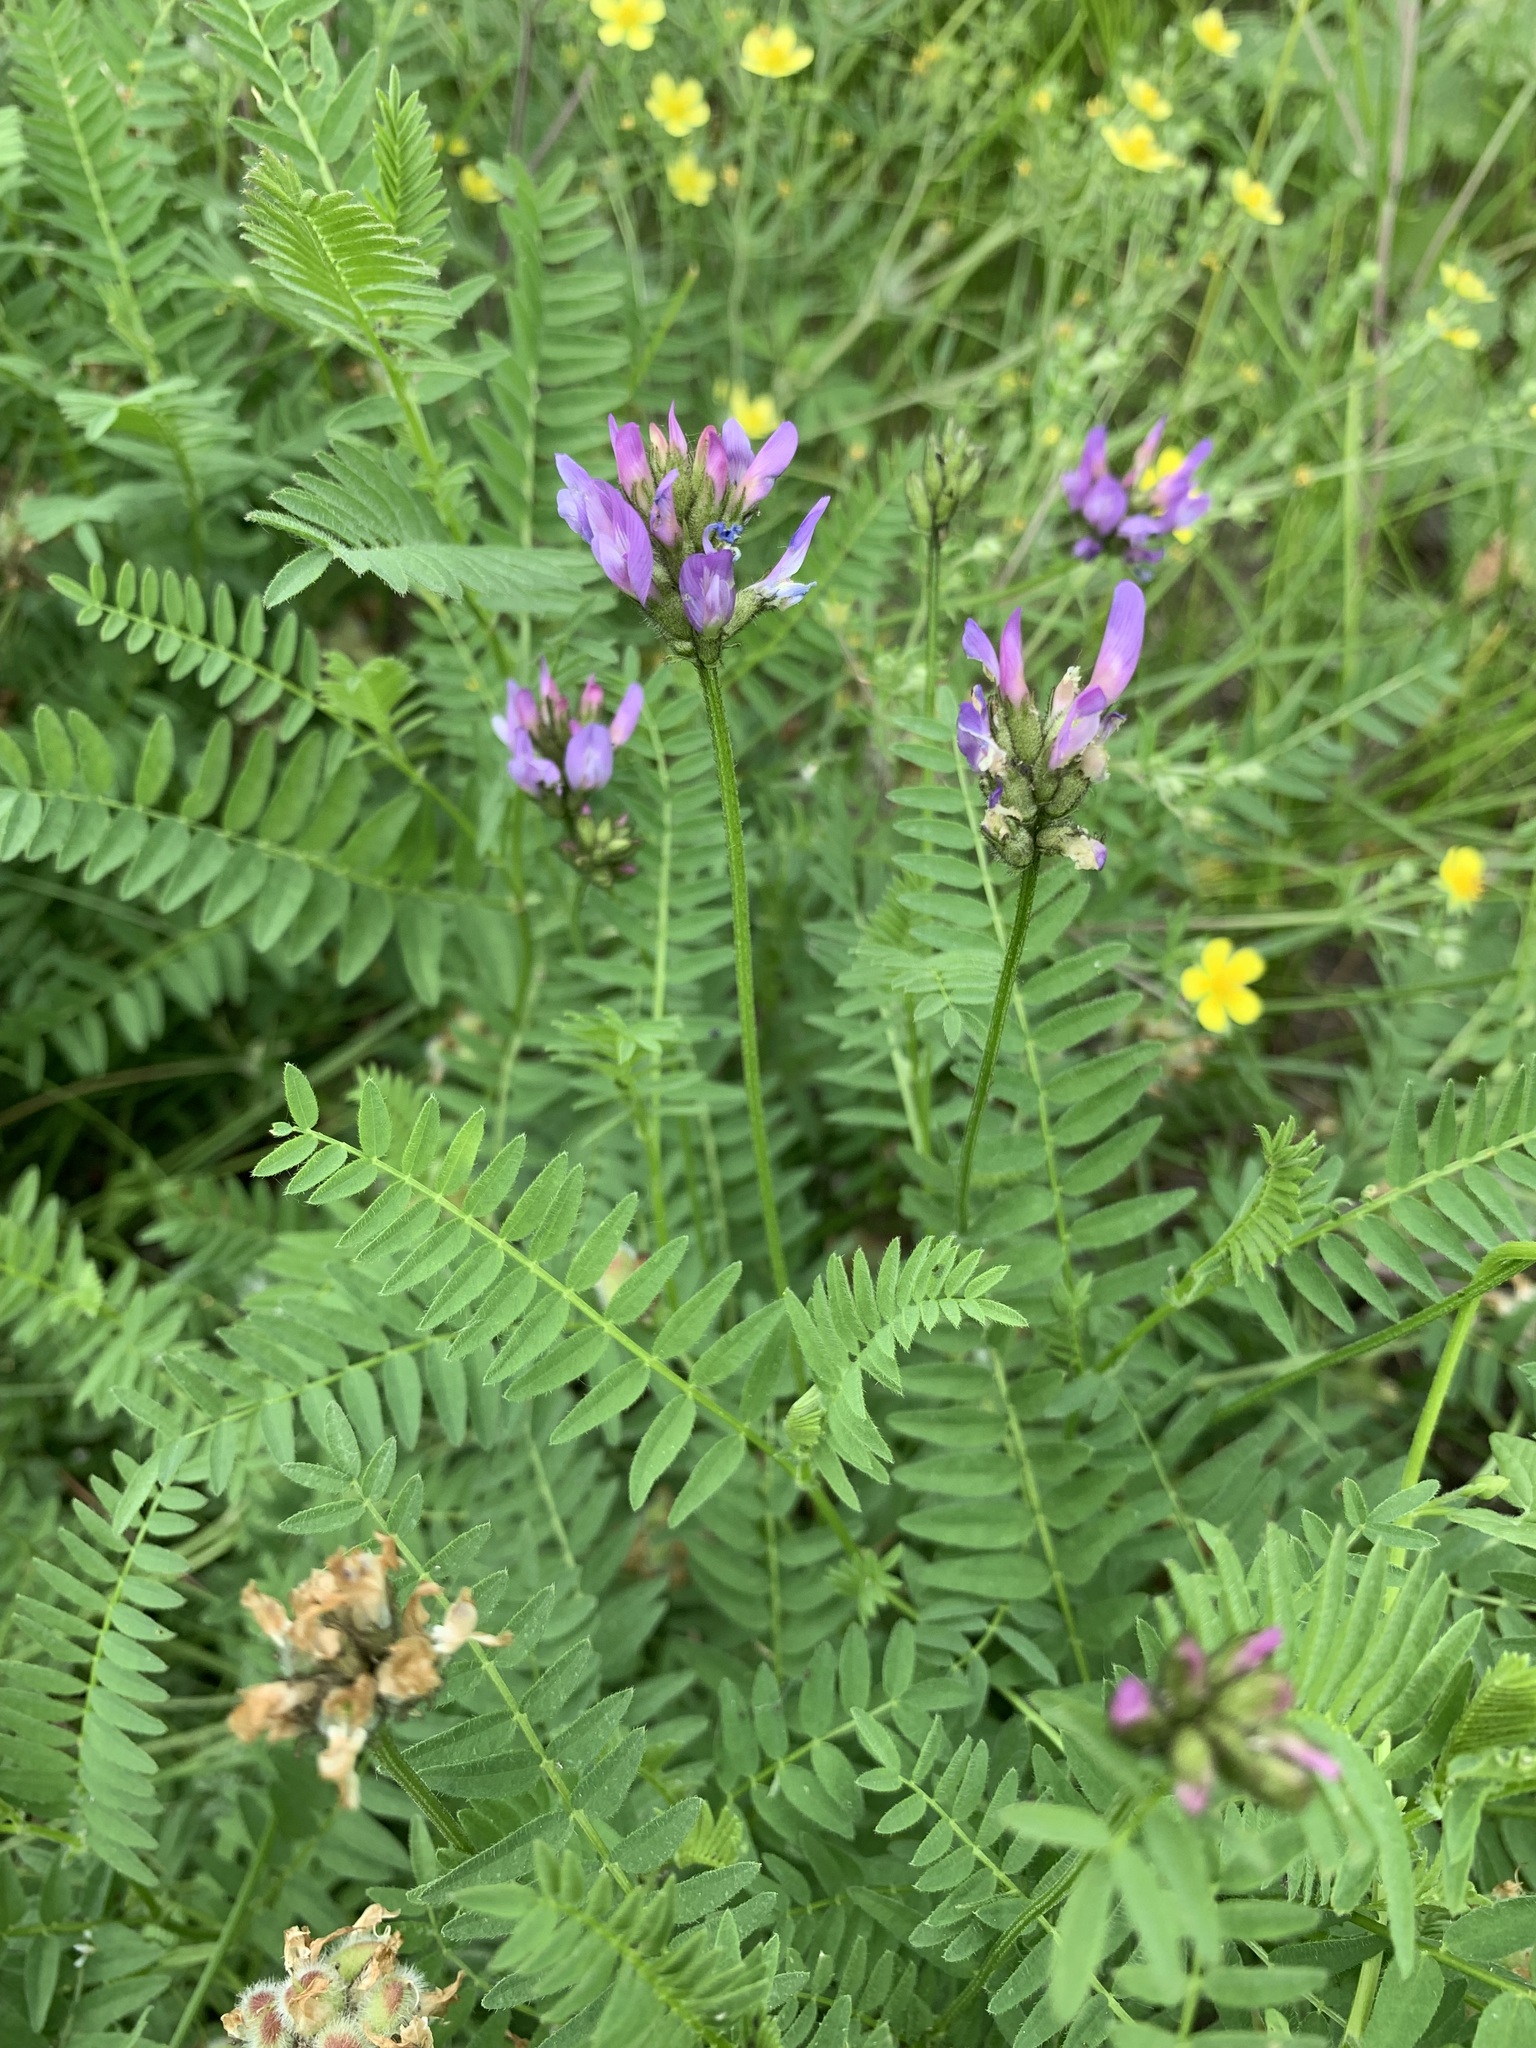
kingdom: Plantae
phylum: Tracheophyta
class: Magnoliopsida
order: Fabales
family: Fabaceae
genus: Astragalus
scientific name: Astragalus danicus
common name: Purple milk-vetch
